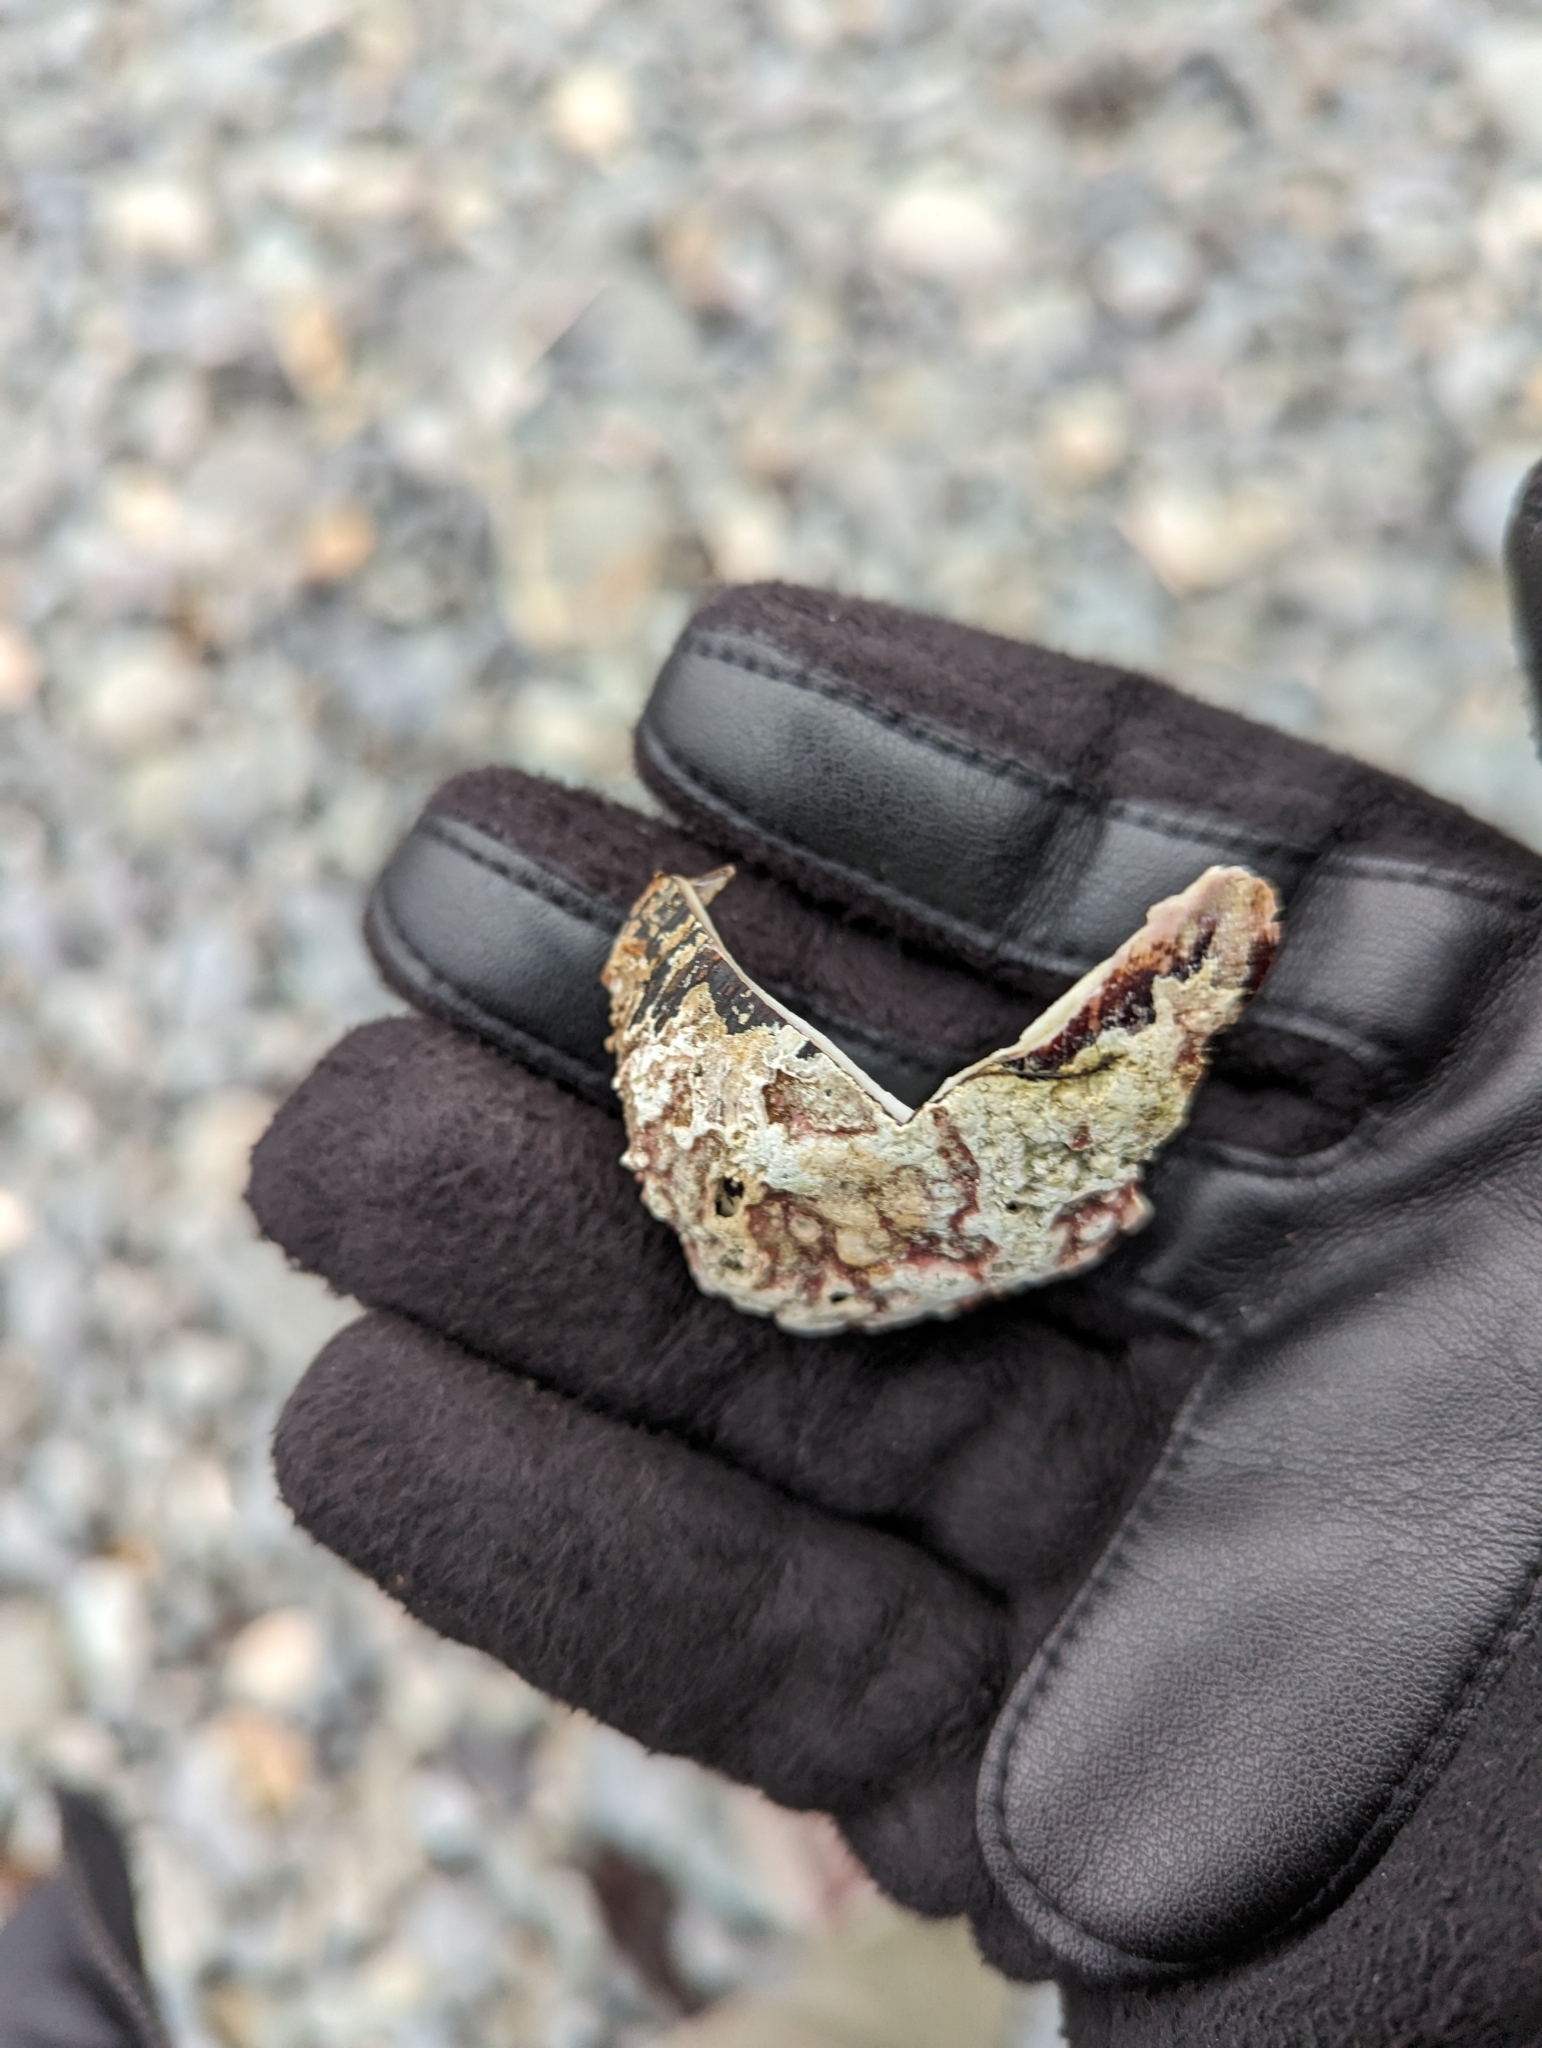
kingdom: Animalia
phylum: Mollusca
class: Bivalvia
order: Mytilida
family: Mytilidae
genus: Modiolus
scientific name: Modiolus modiolus
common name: Horse-mussel
